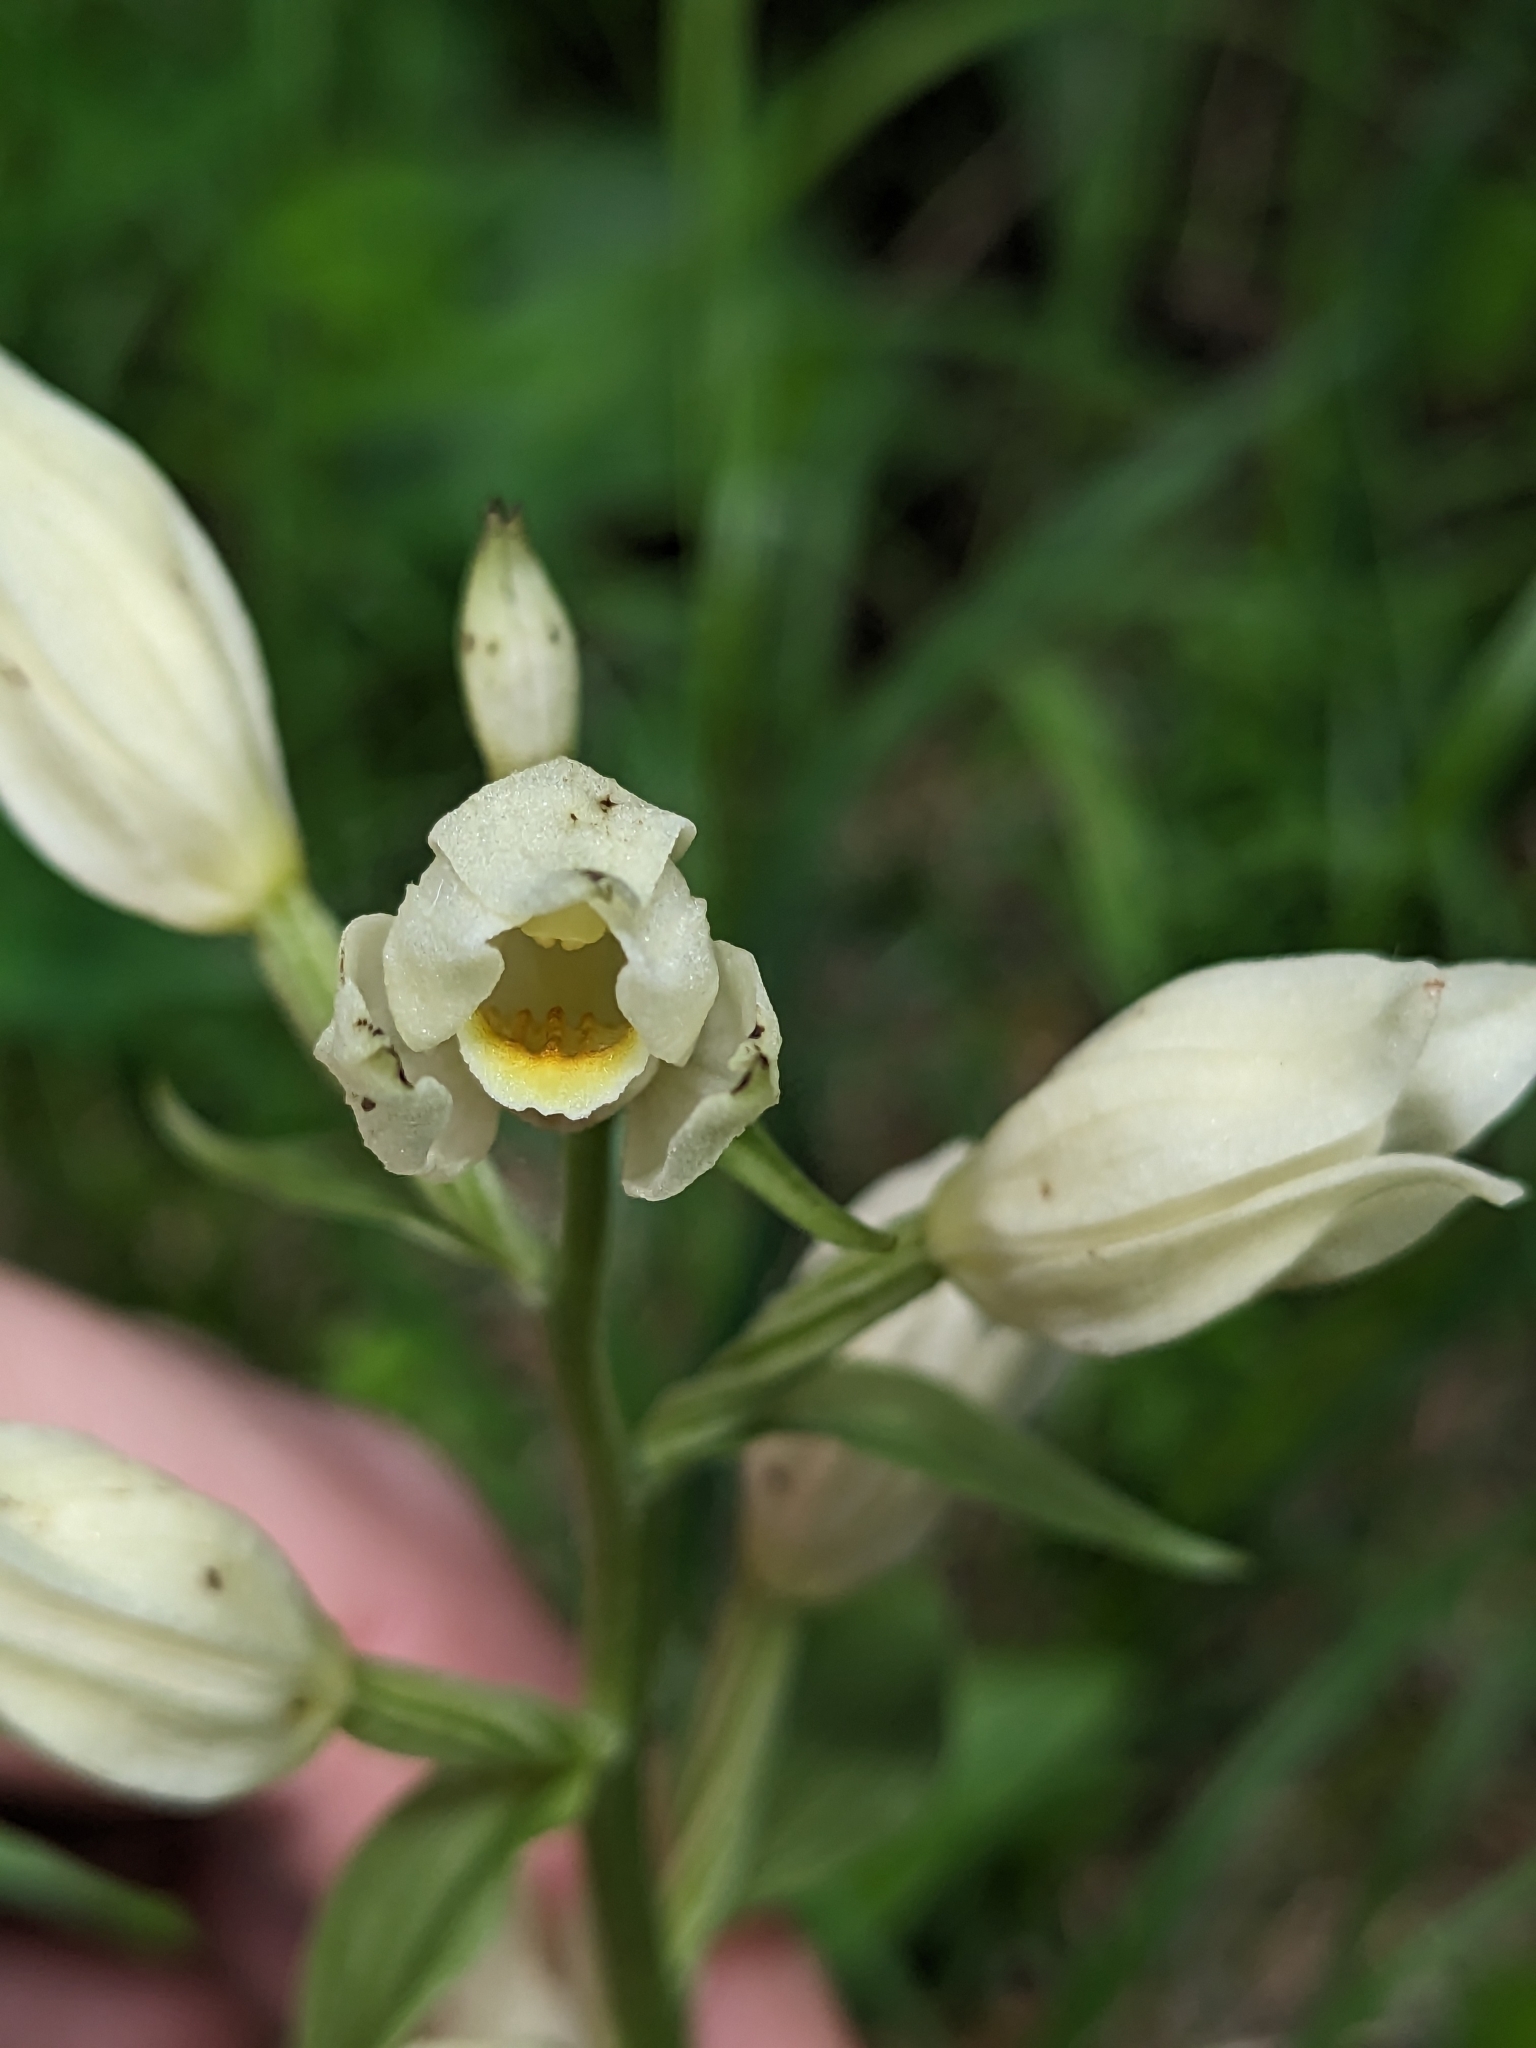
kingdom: Plantae
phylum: Tracheophyta
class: Liliopsida
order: Asparagales
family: Orchidaceae
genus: Cephalanthera
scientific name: Cephalanthera damasonium
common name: White helleborine
